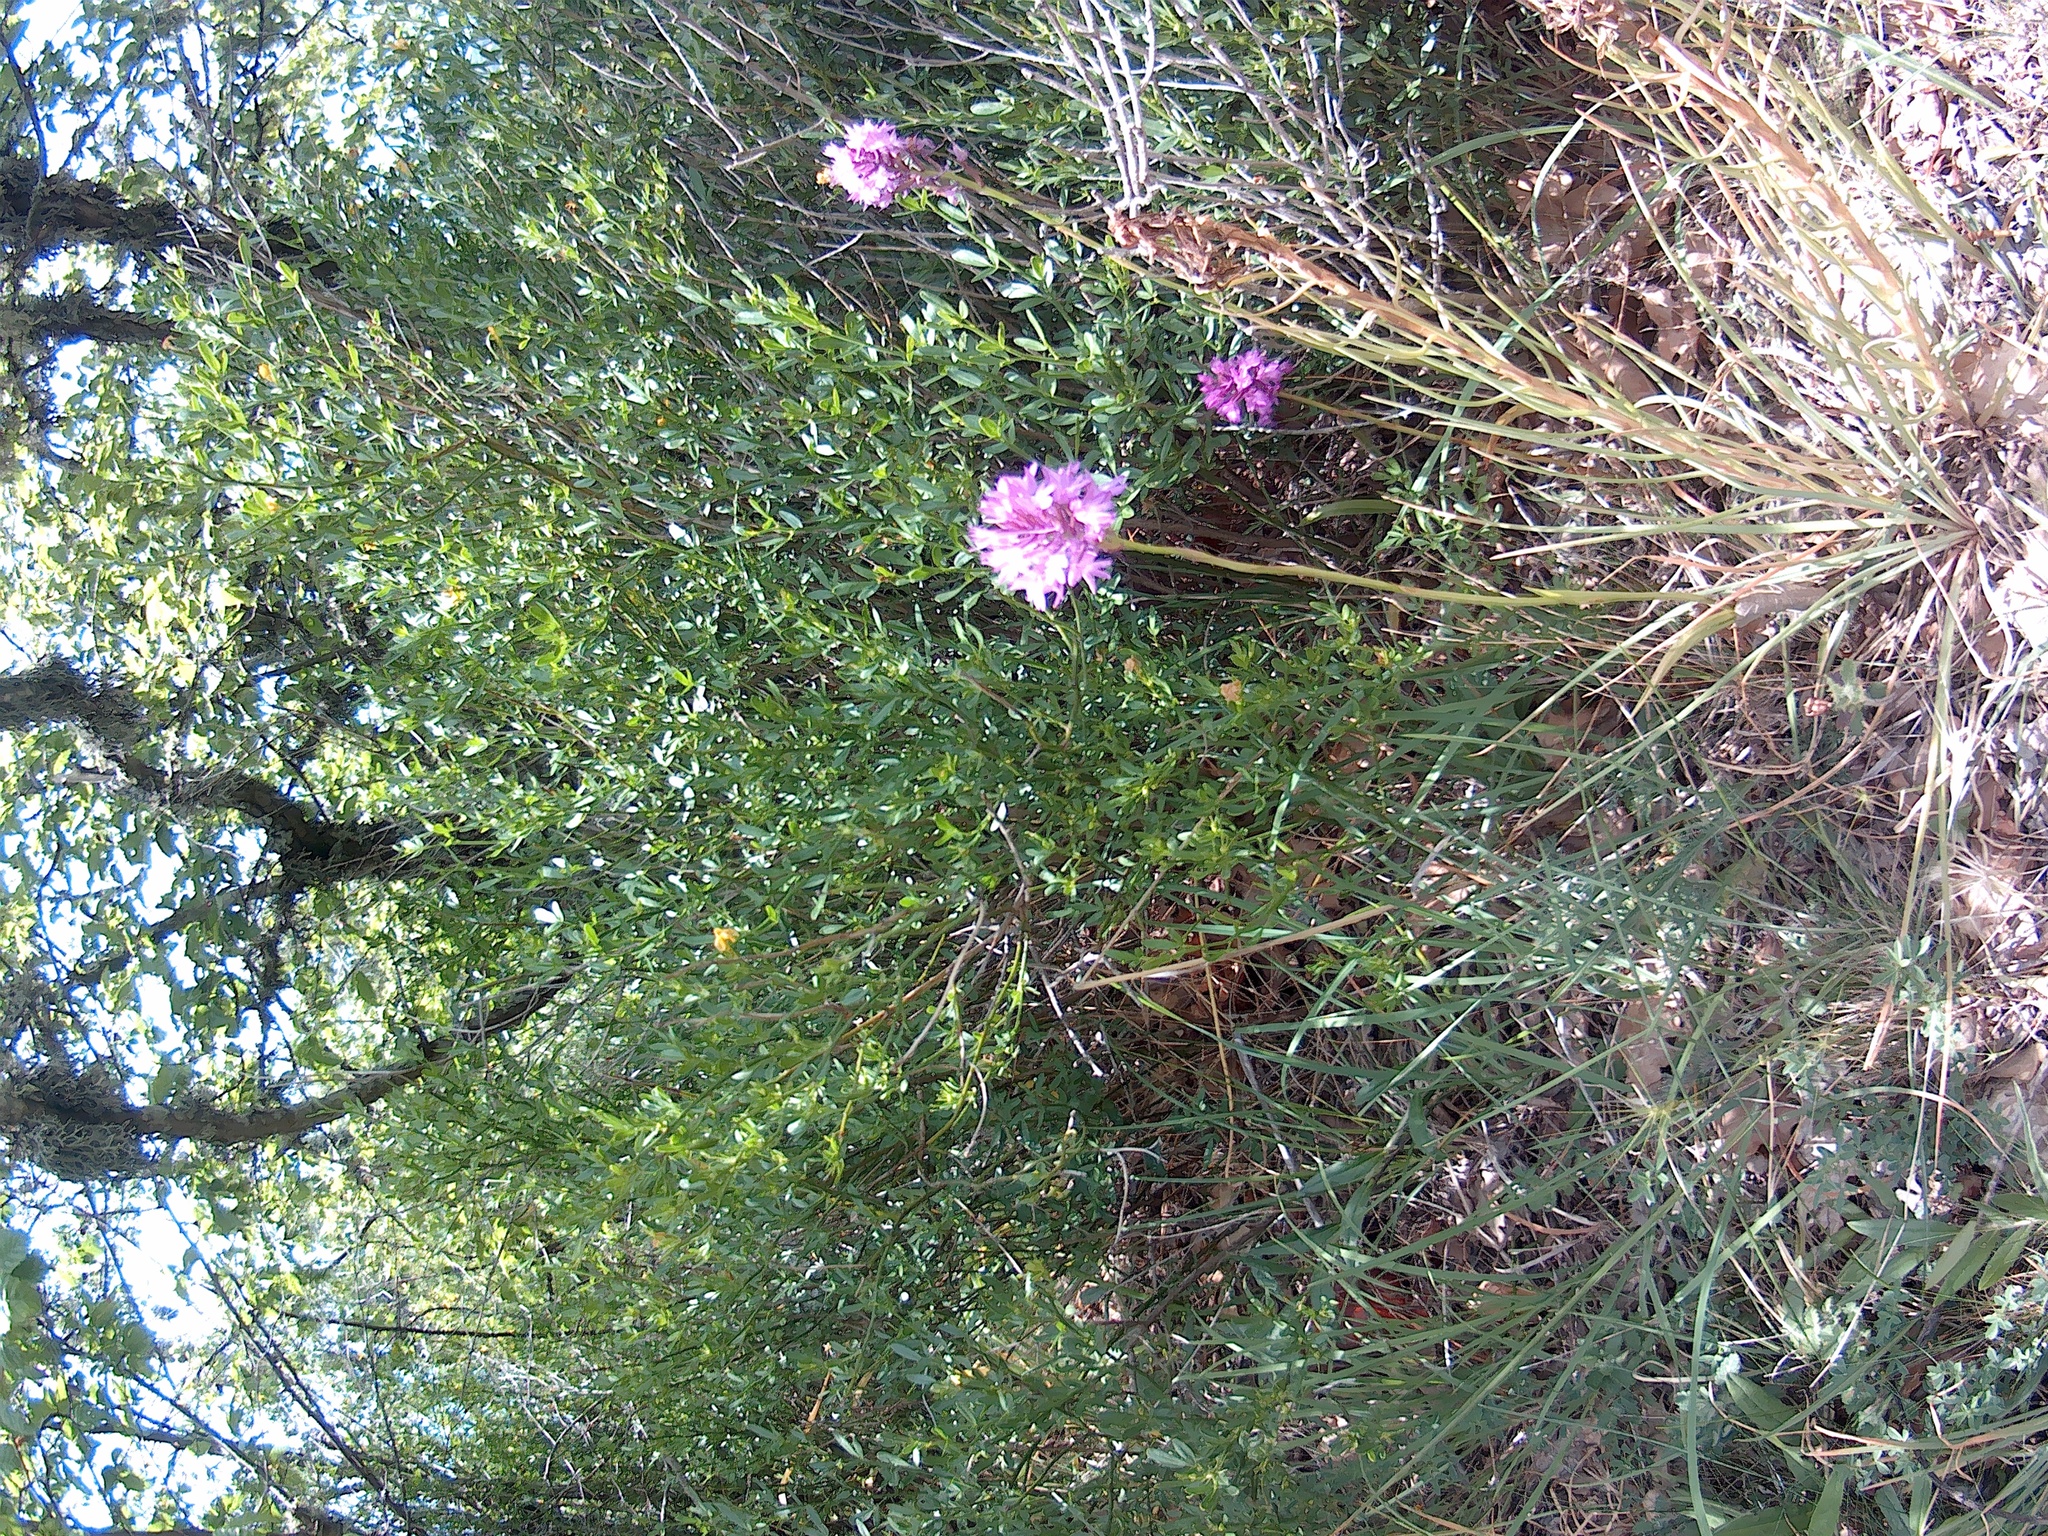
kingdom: Plantae
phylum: Tracheophyta
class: Liliopsida
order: Asparagales
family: Orchidaceae
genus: Anacamptis
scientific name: Anacamptis pyramidalis
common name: Pyramidal orchid
